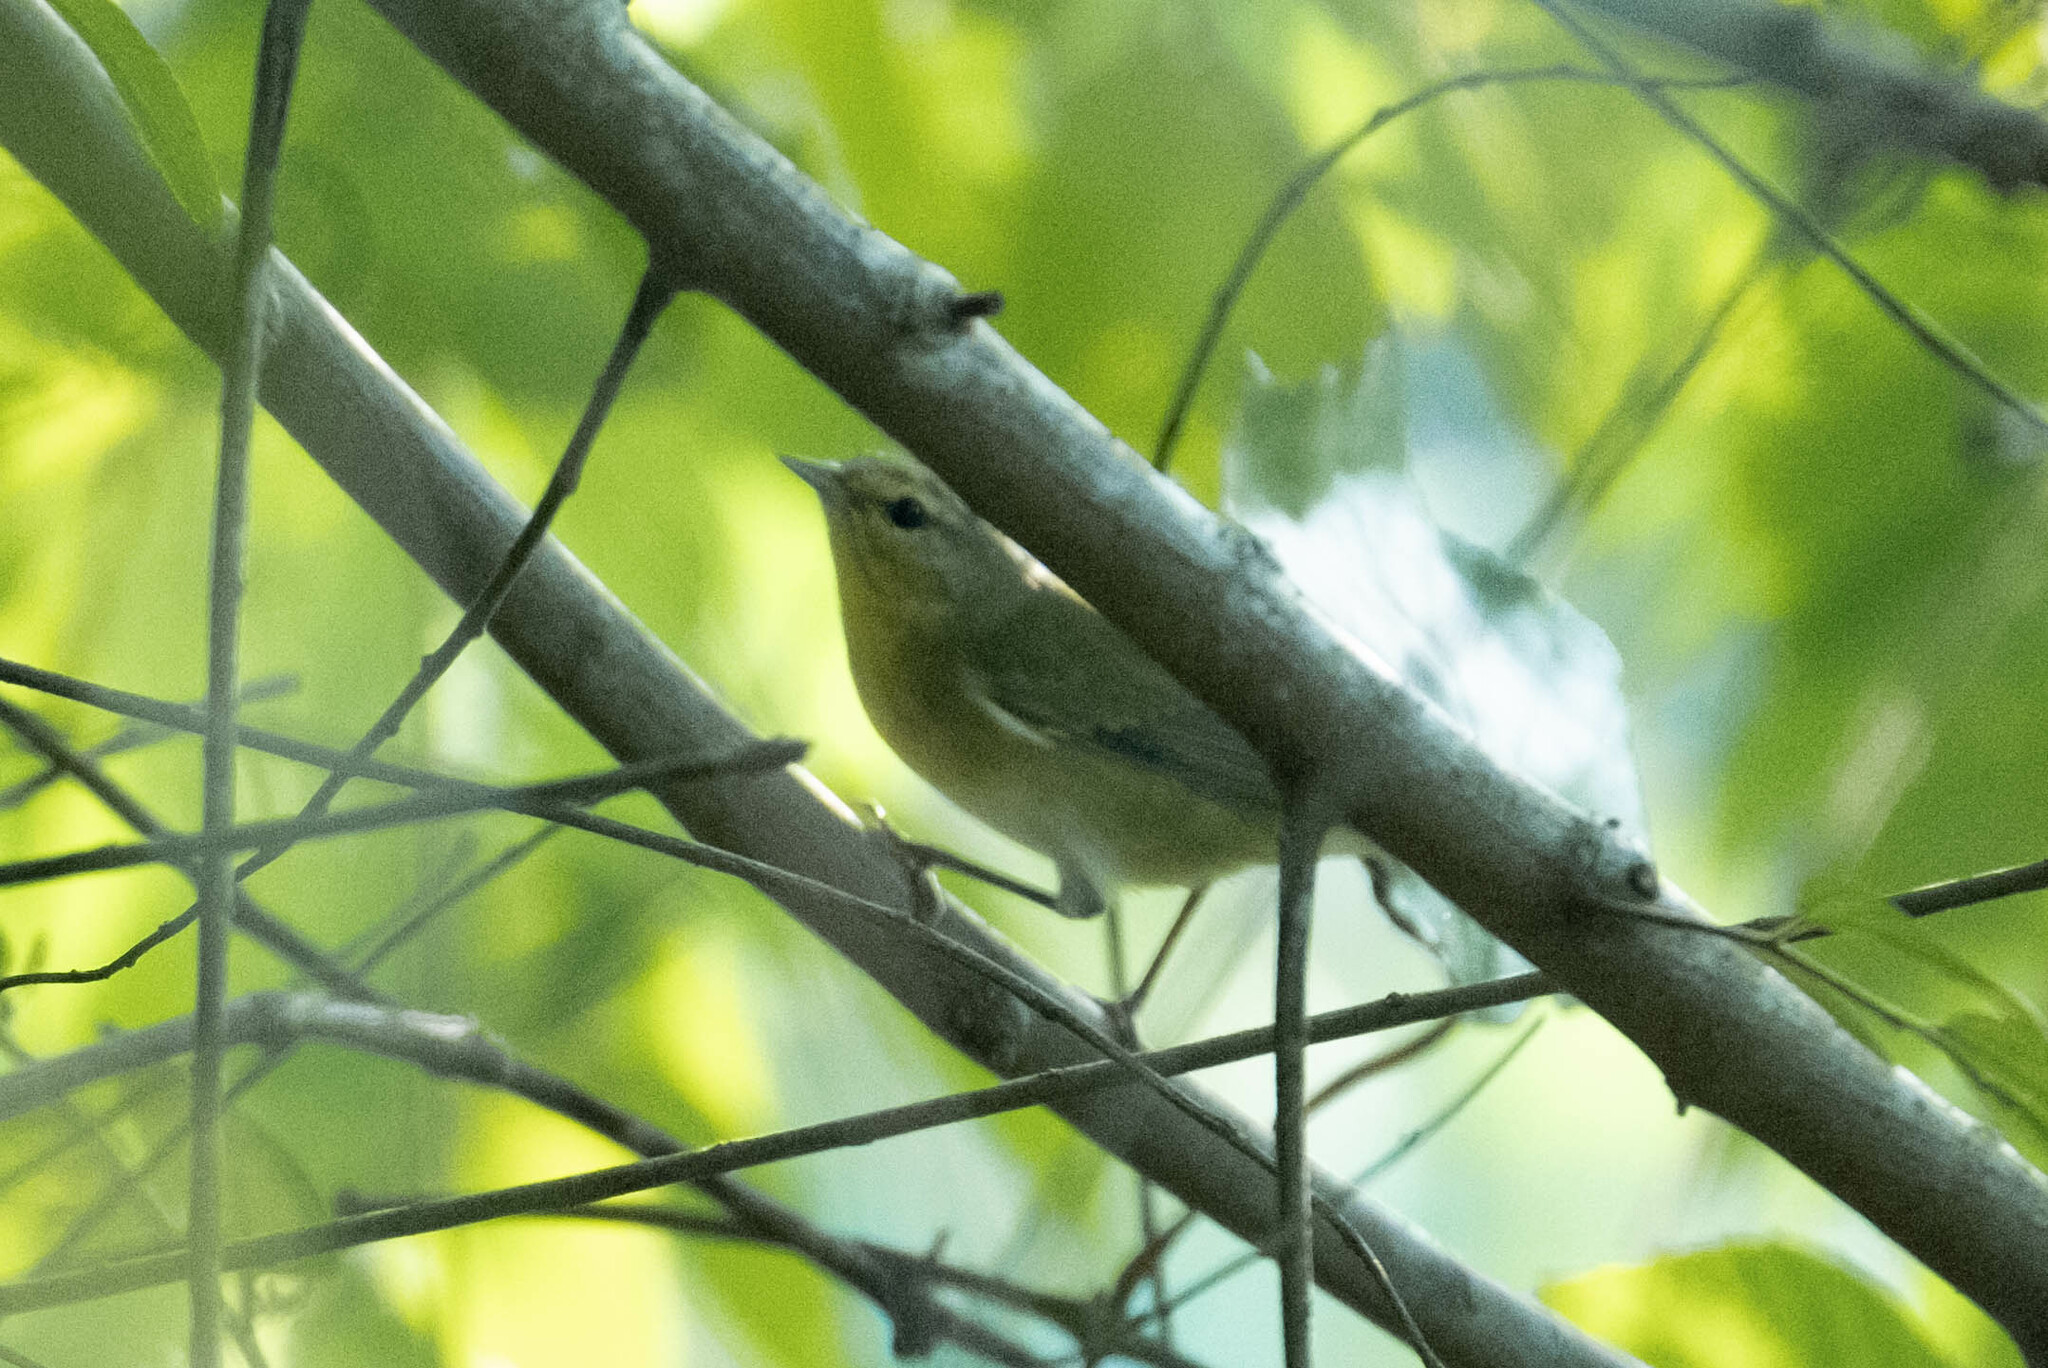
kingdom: Animalia
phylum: Chordata
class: Aves
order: Passeriformes
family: Parulidae
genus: Leiothlypis
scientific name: Leiothlypis peregrina
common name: Tennessee warbler
